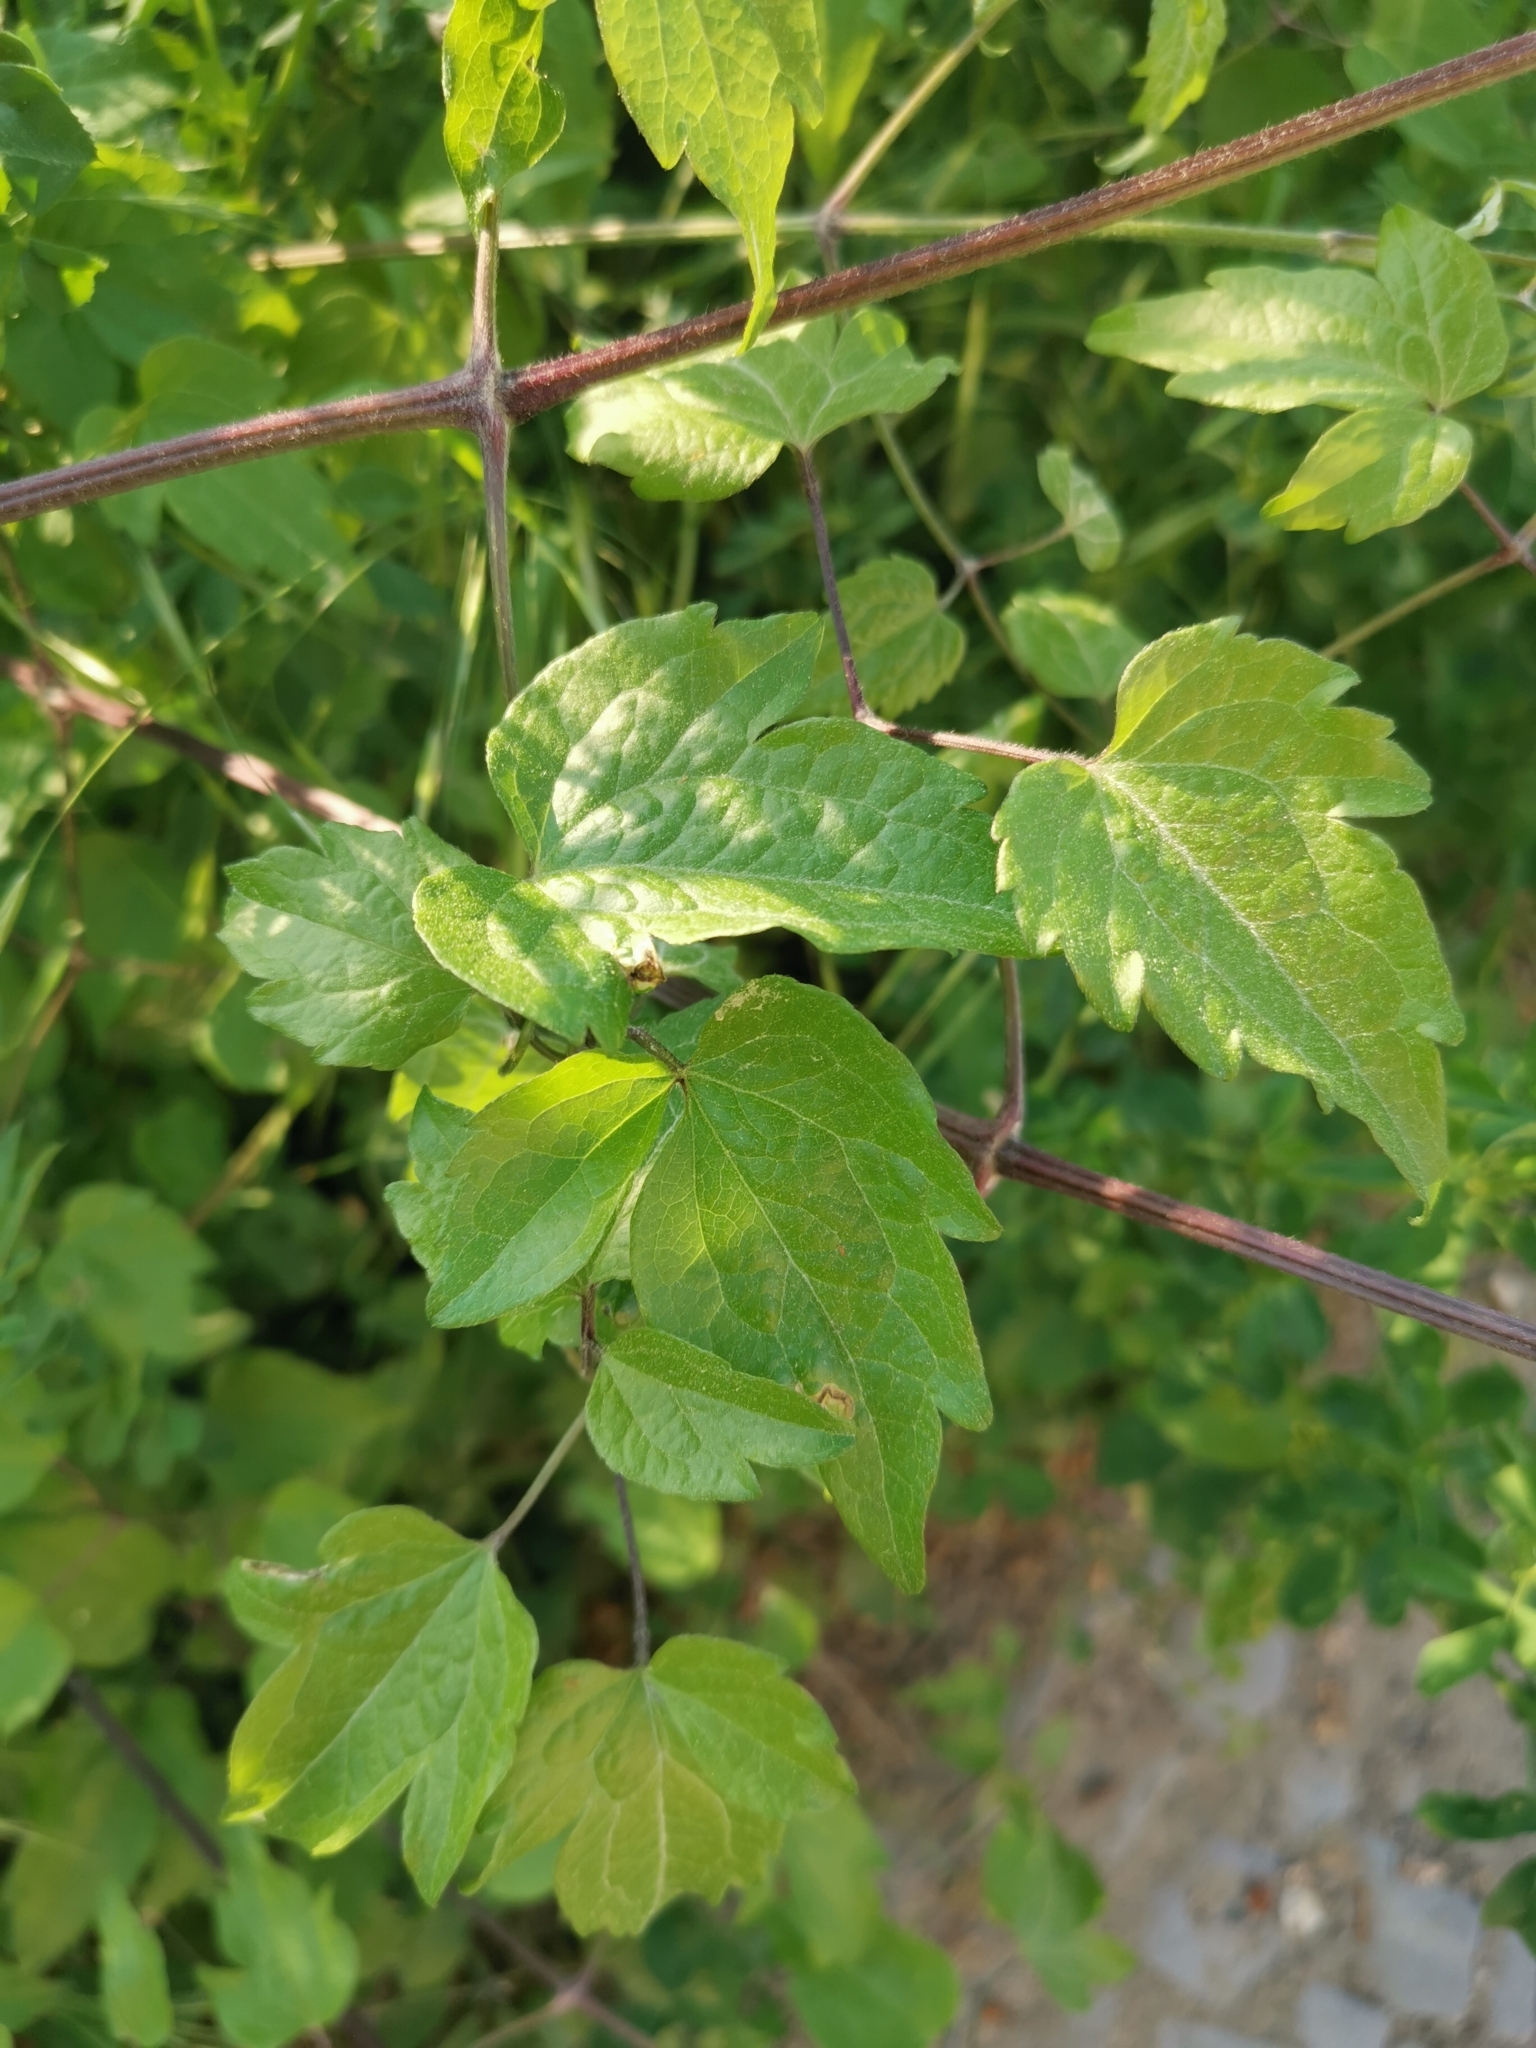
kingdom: Plantae
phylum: Tracheophyta
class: Magnoliopsida
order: Ranunculales
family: Ranunculaceae
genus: Clematis
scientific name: Clematis vitalba
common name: Evergreen clematis
